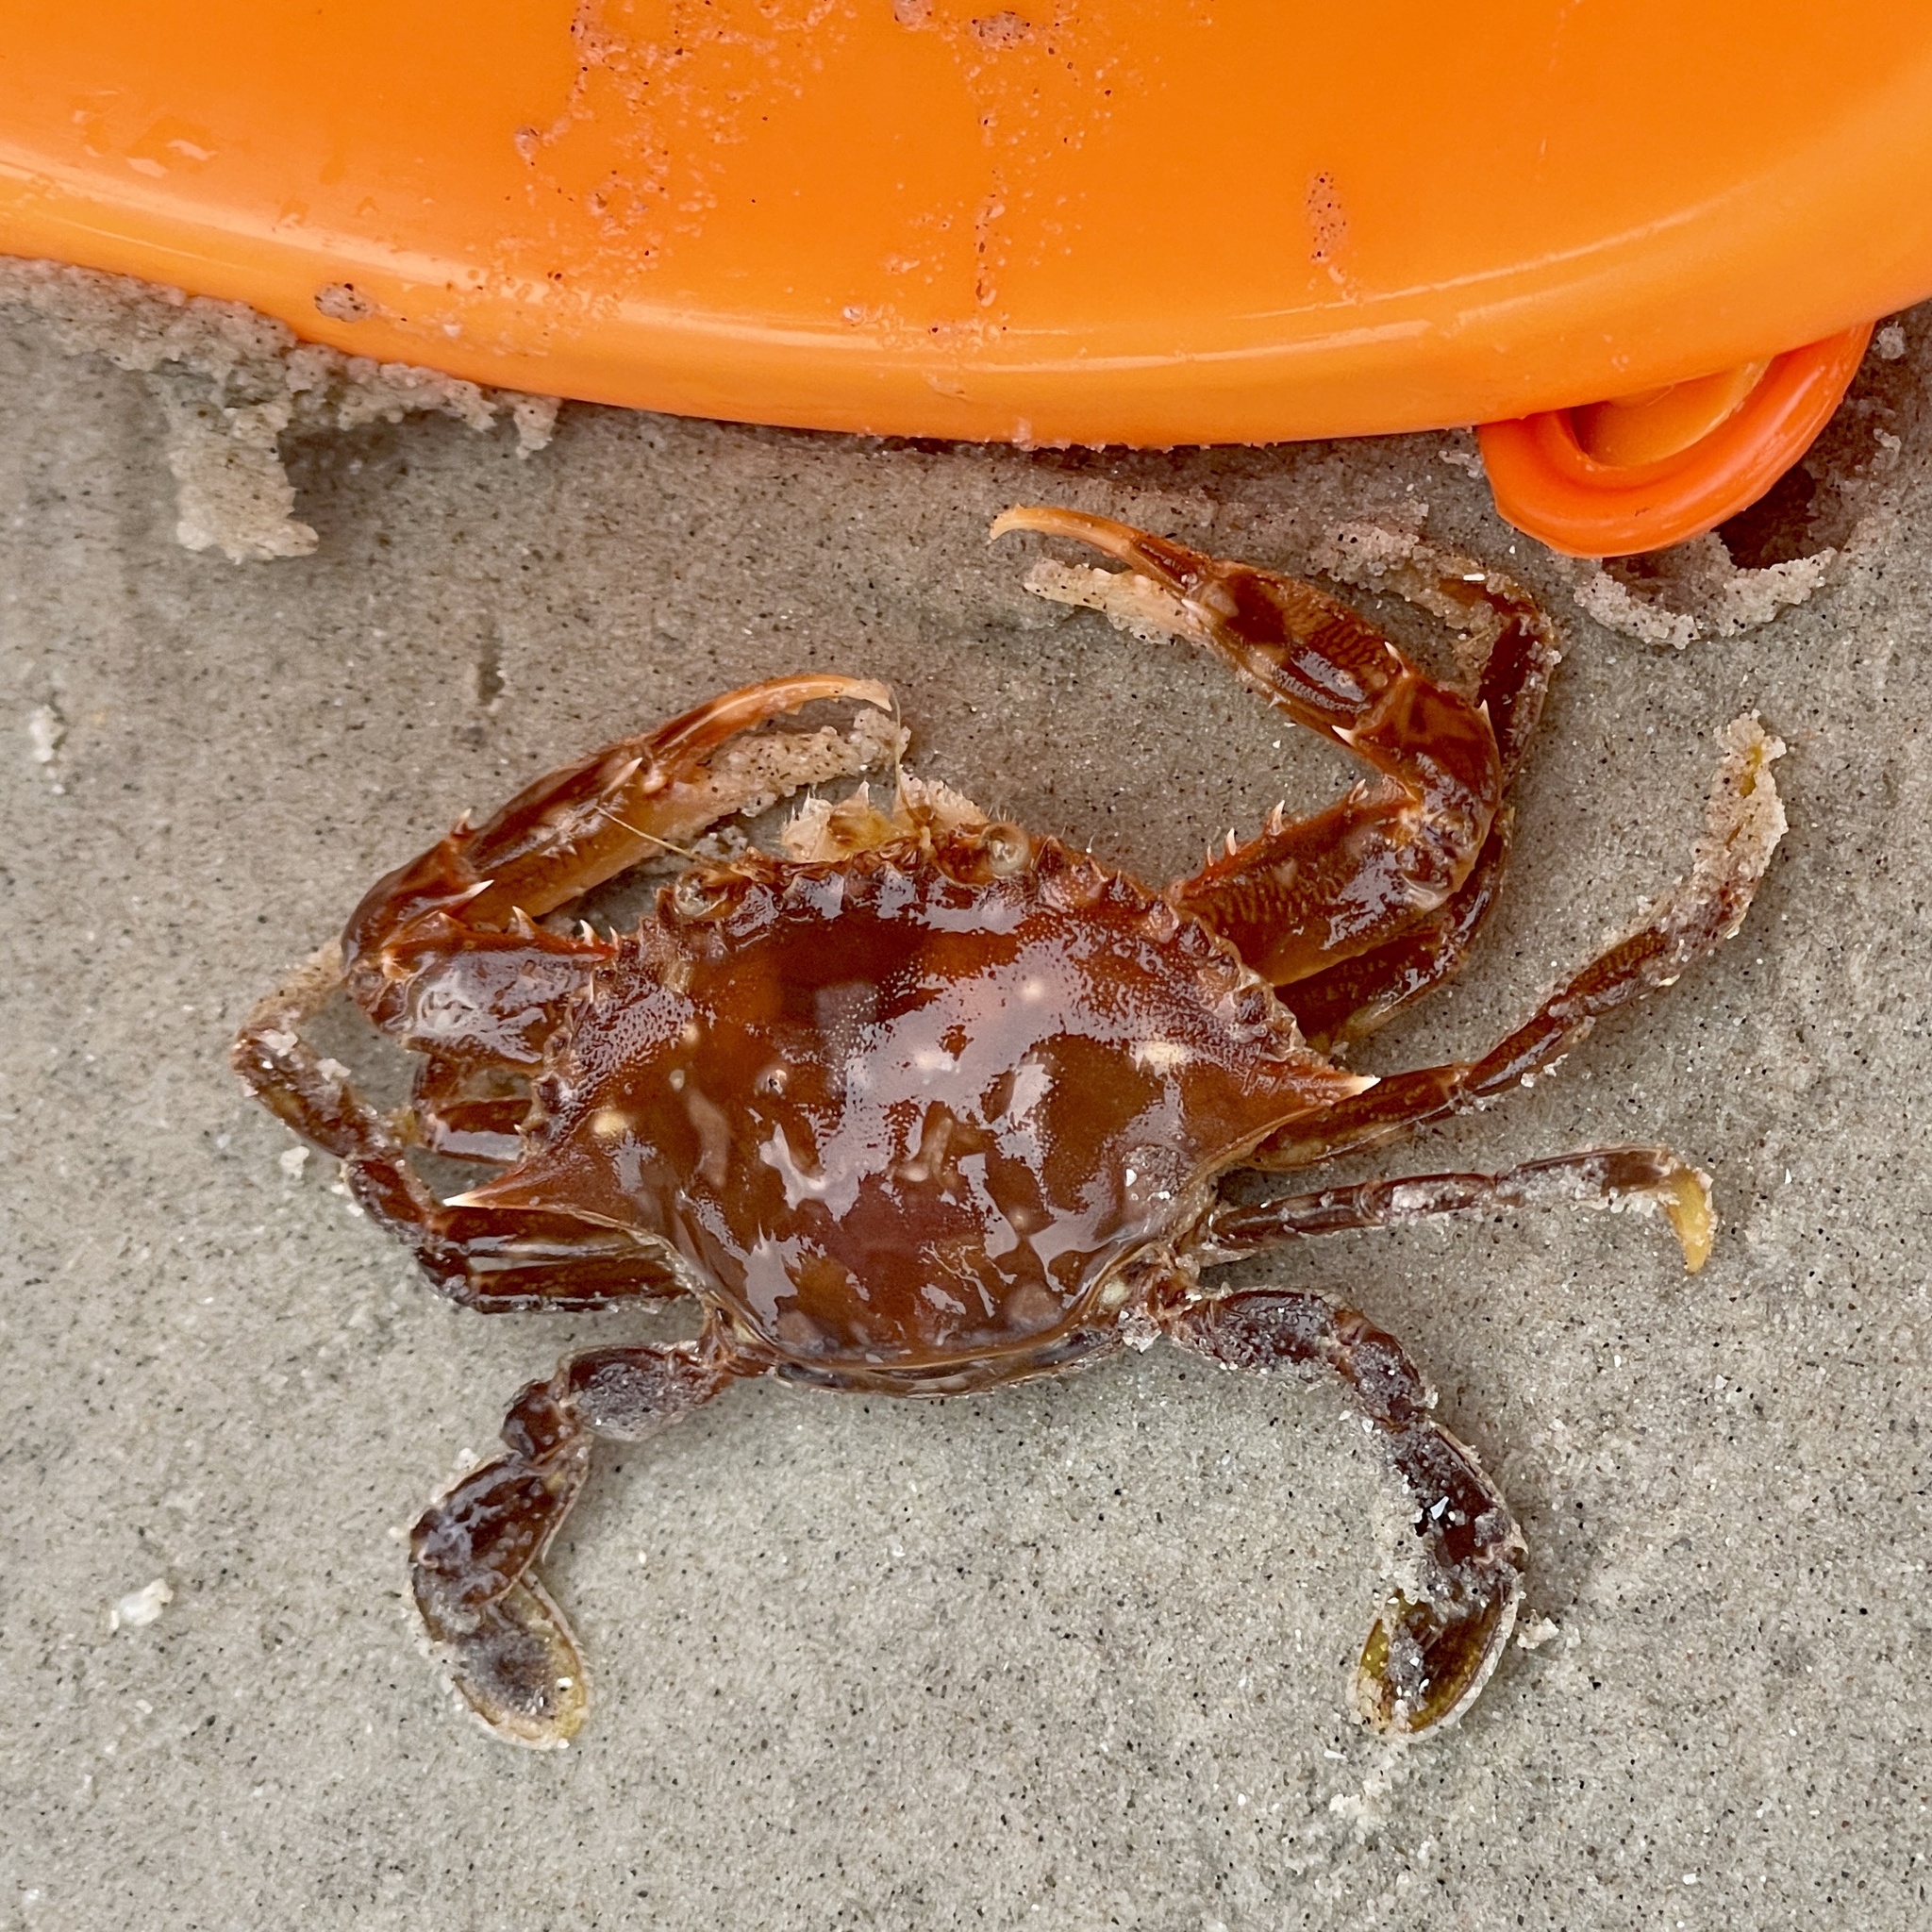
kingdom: Animalia
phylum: Arthropoda
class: Malacostraca
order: Decapoda
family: Portunidae
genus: Portunus
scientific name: Portunus sayi
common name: Sargassum crab
